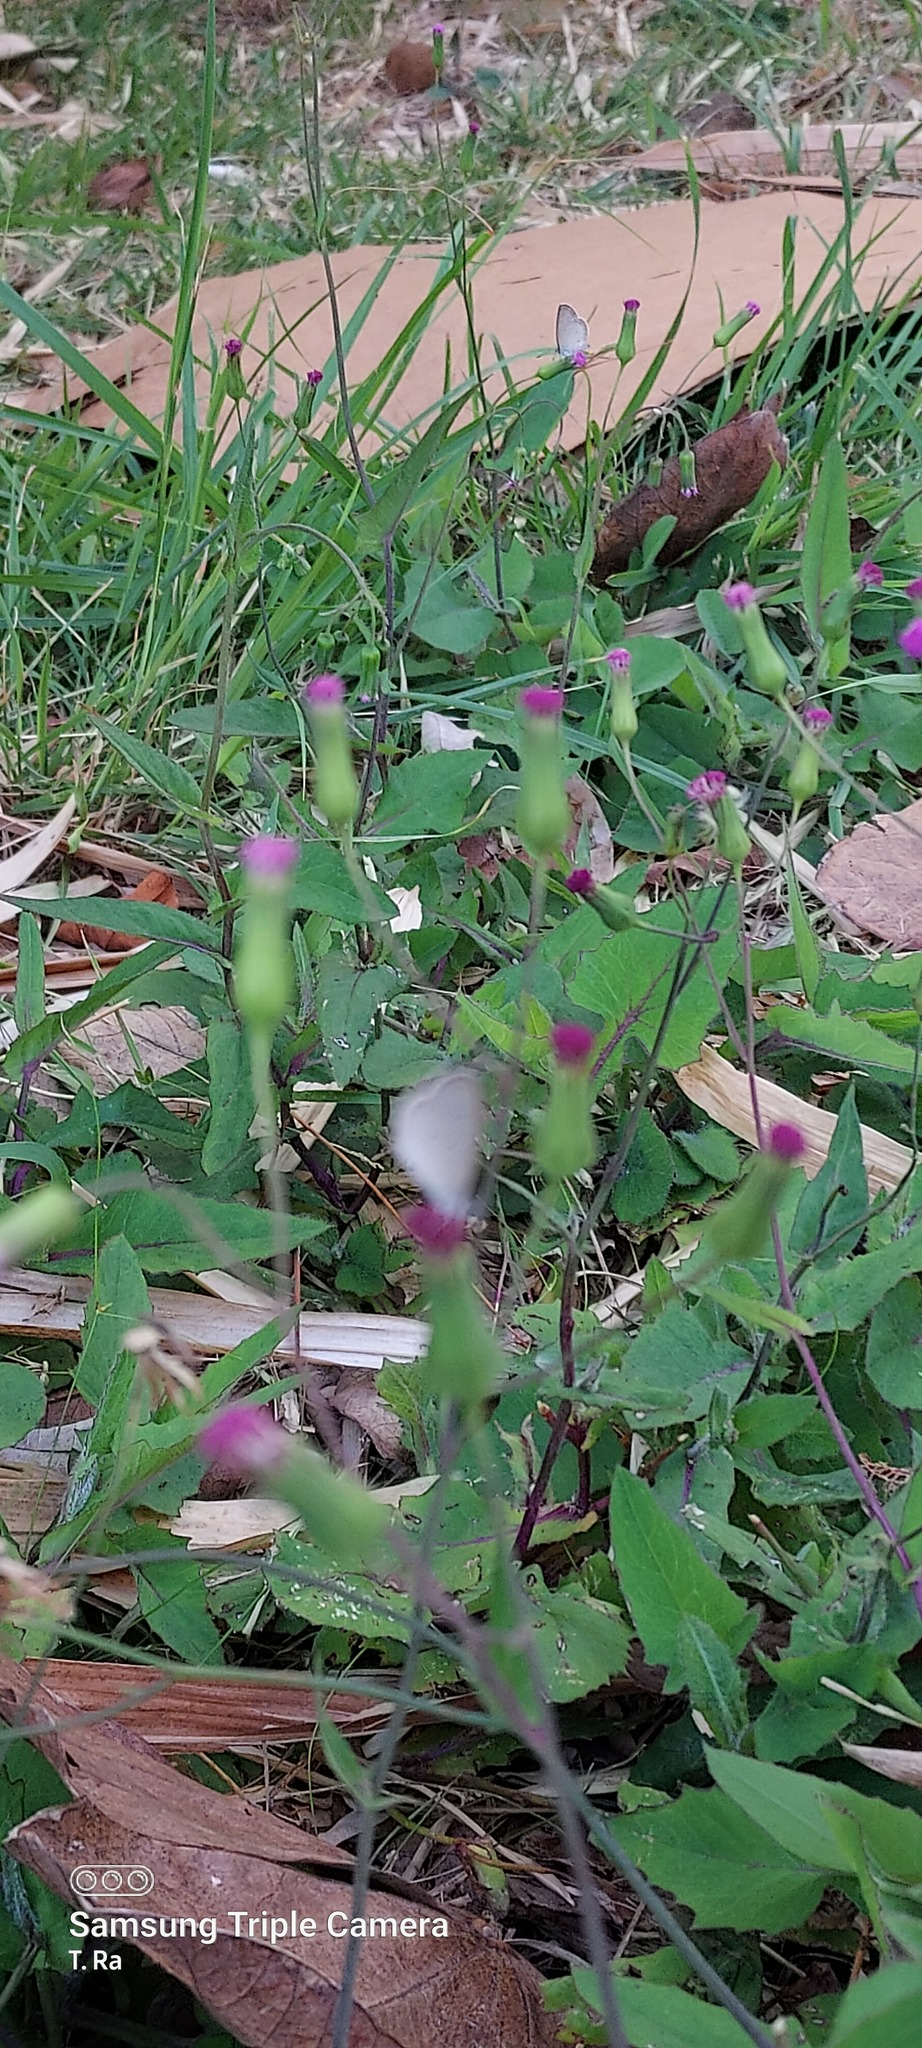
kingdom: Animalia
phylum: Arthropoda
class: Insecta
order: Lepidoptera
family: Lycaenidae
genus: Zizina
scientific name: Zizina otis
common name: Lesser grass blue
